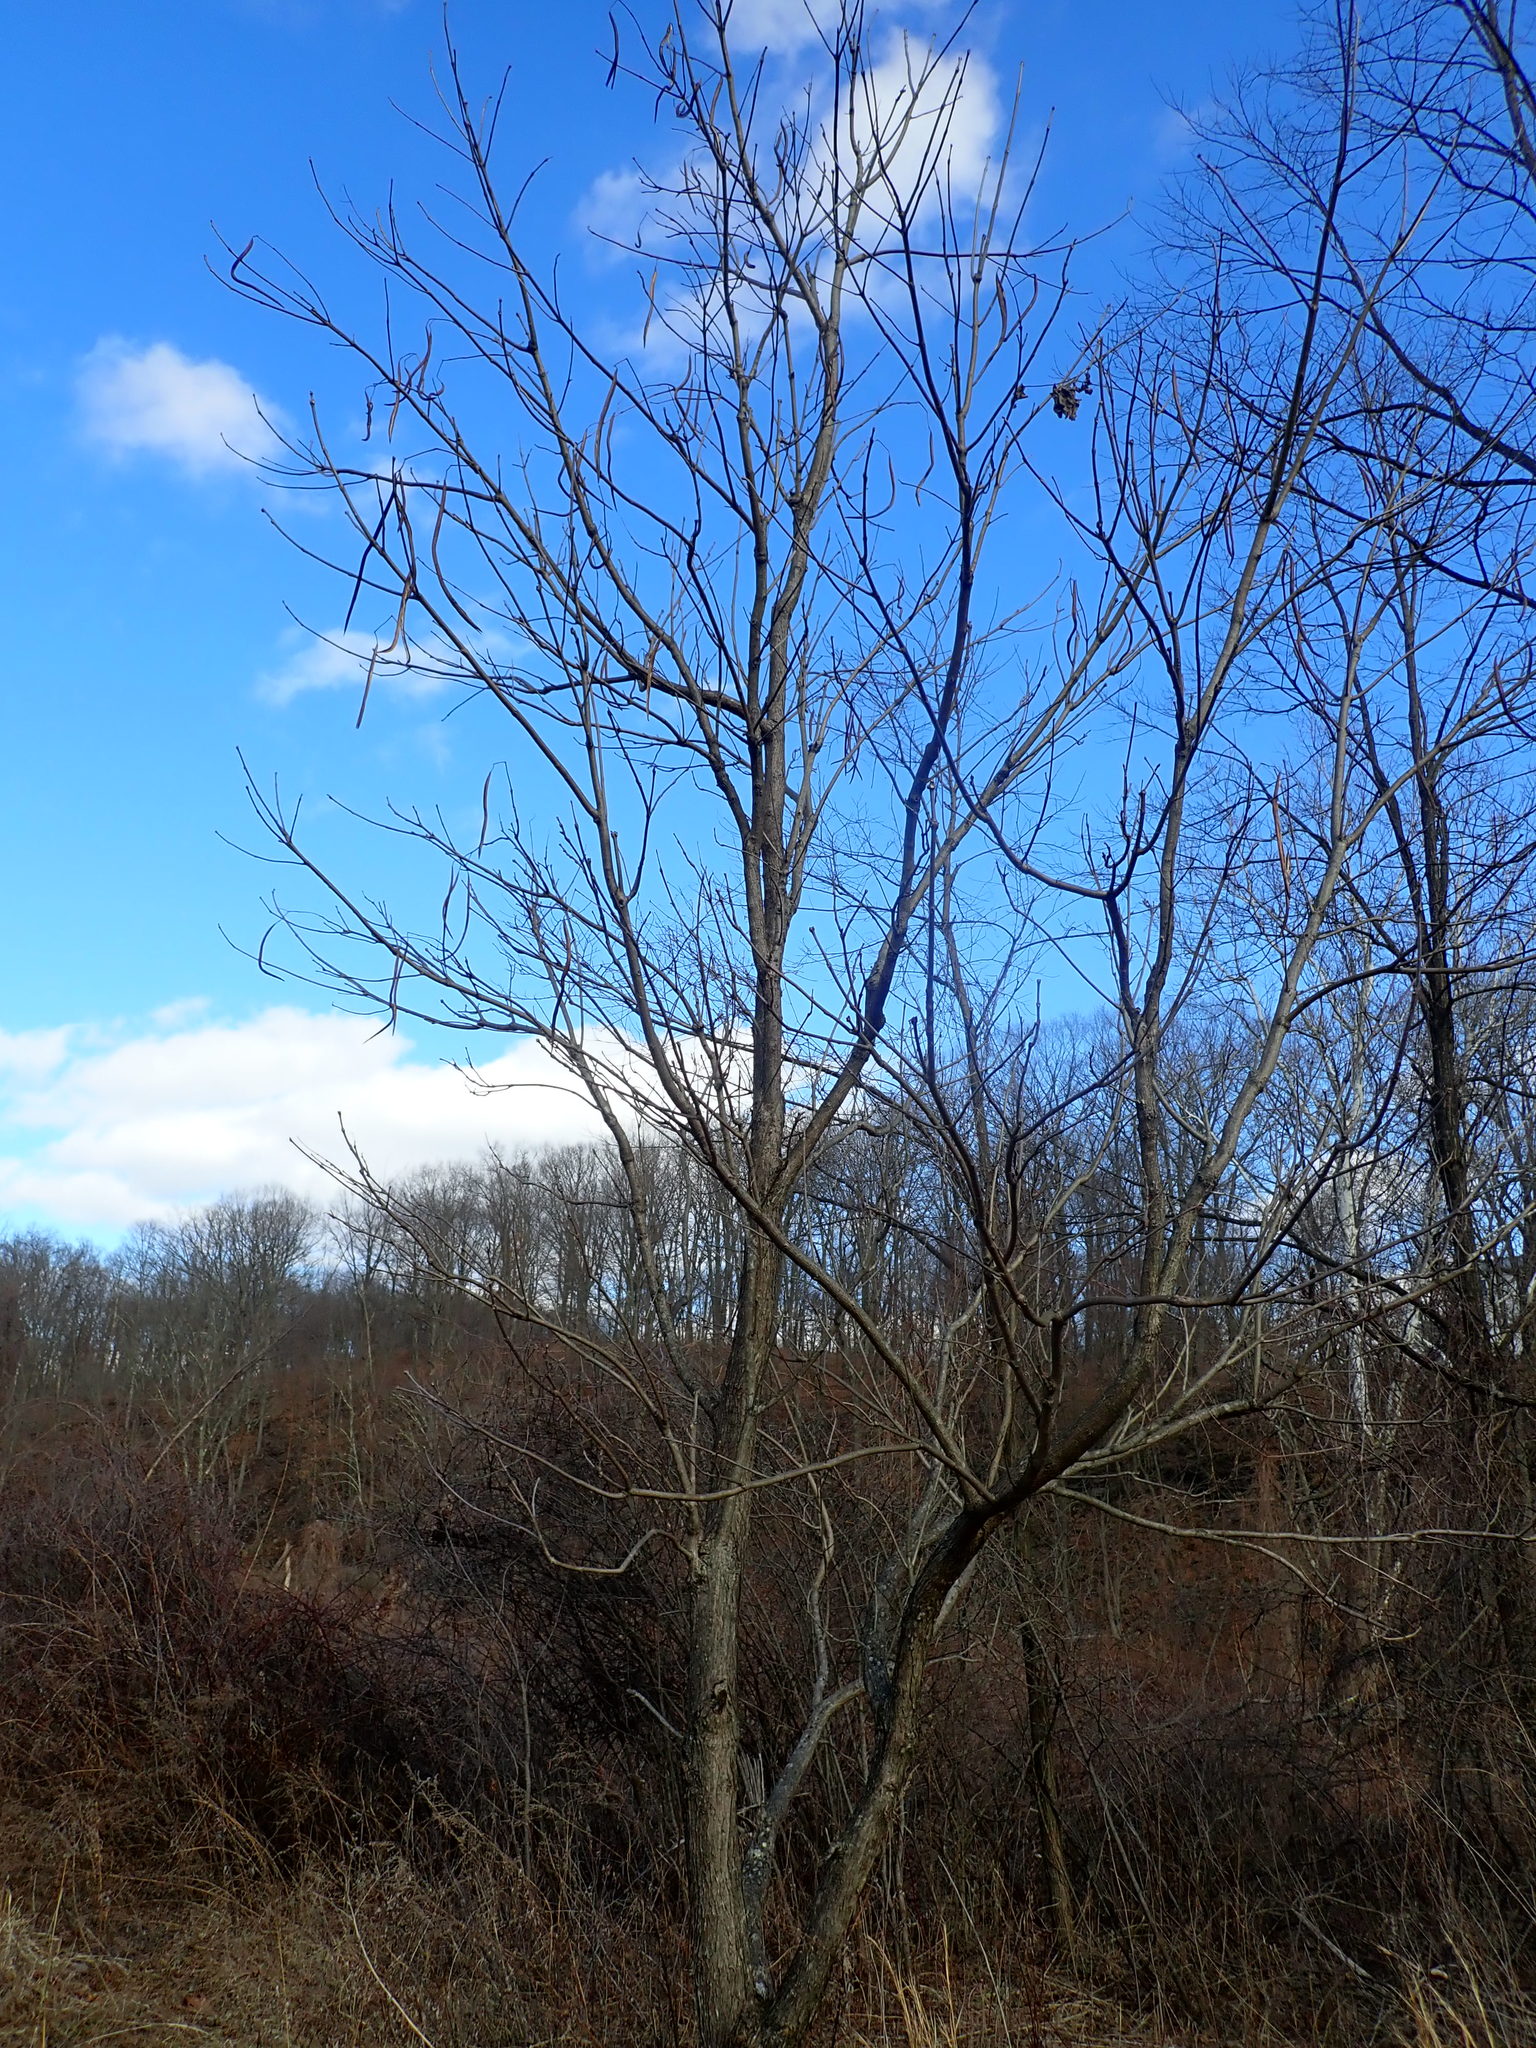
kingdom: Plantae
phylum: Tracheophyta
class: Magnoliopsida
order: Lamiales
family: Bignoniaceae
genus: Catalpa
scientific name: Catalpa
